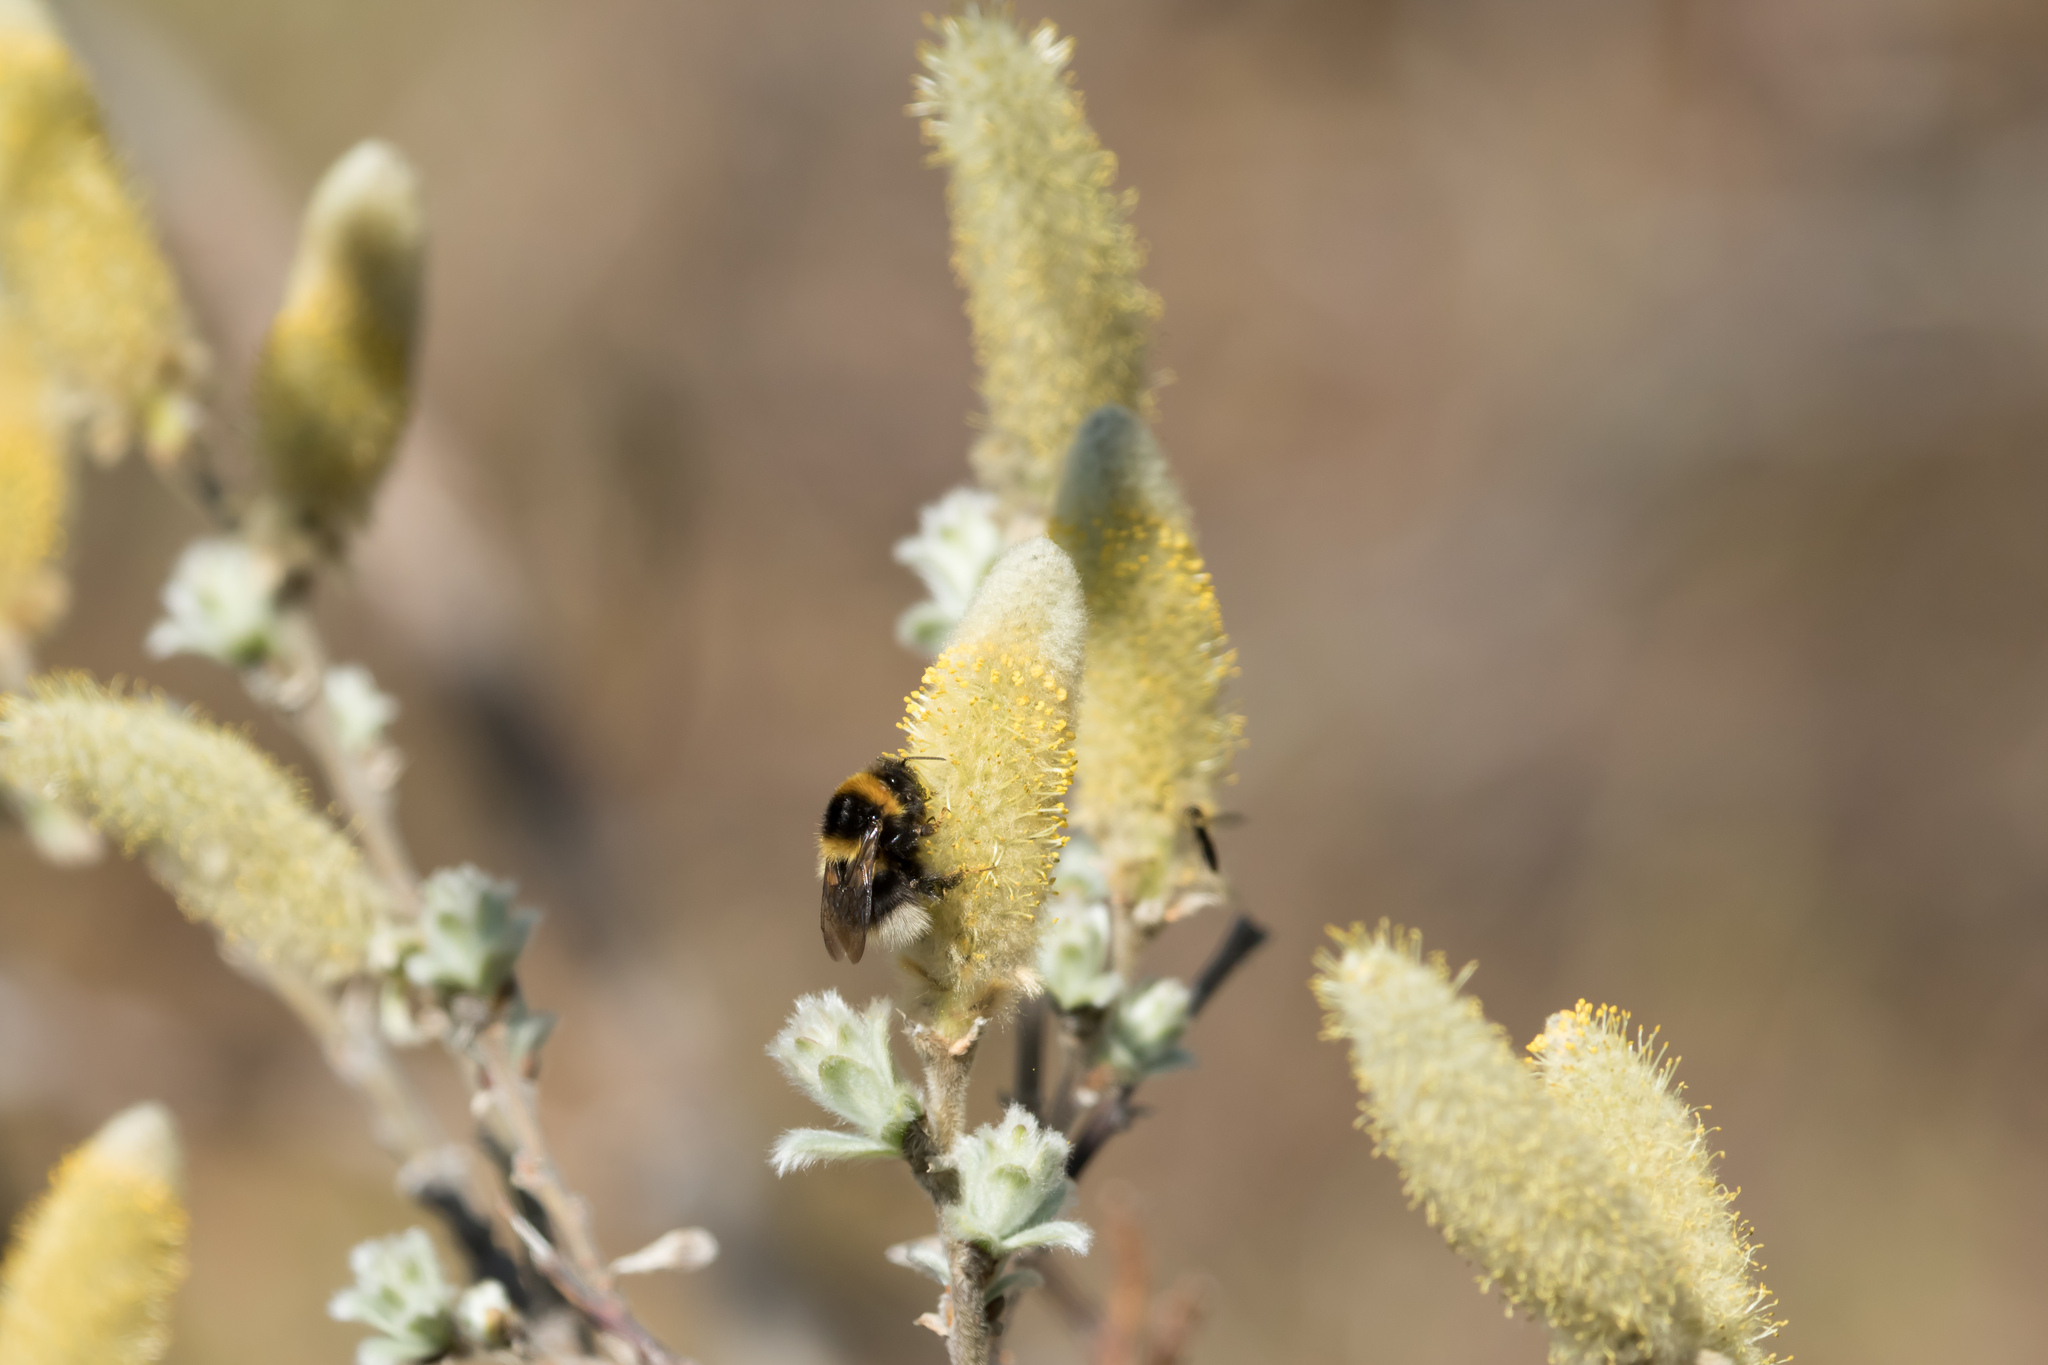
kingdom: Animalia
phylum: Arthropoda
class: Insecta
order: Hymenoptera
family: Apidae
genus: Bombus
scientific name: Bombus jonellus
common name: Heath humble-bee
